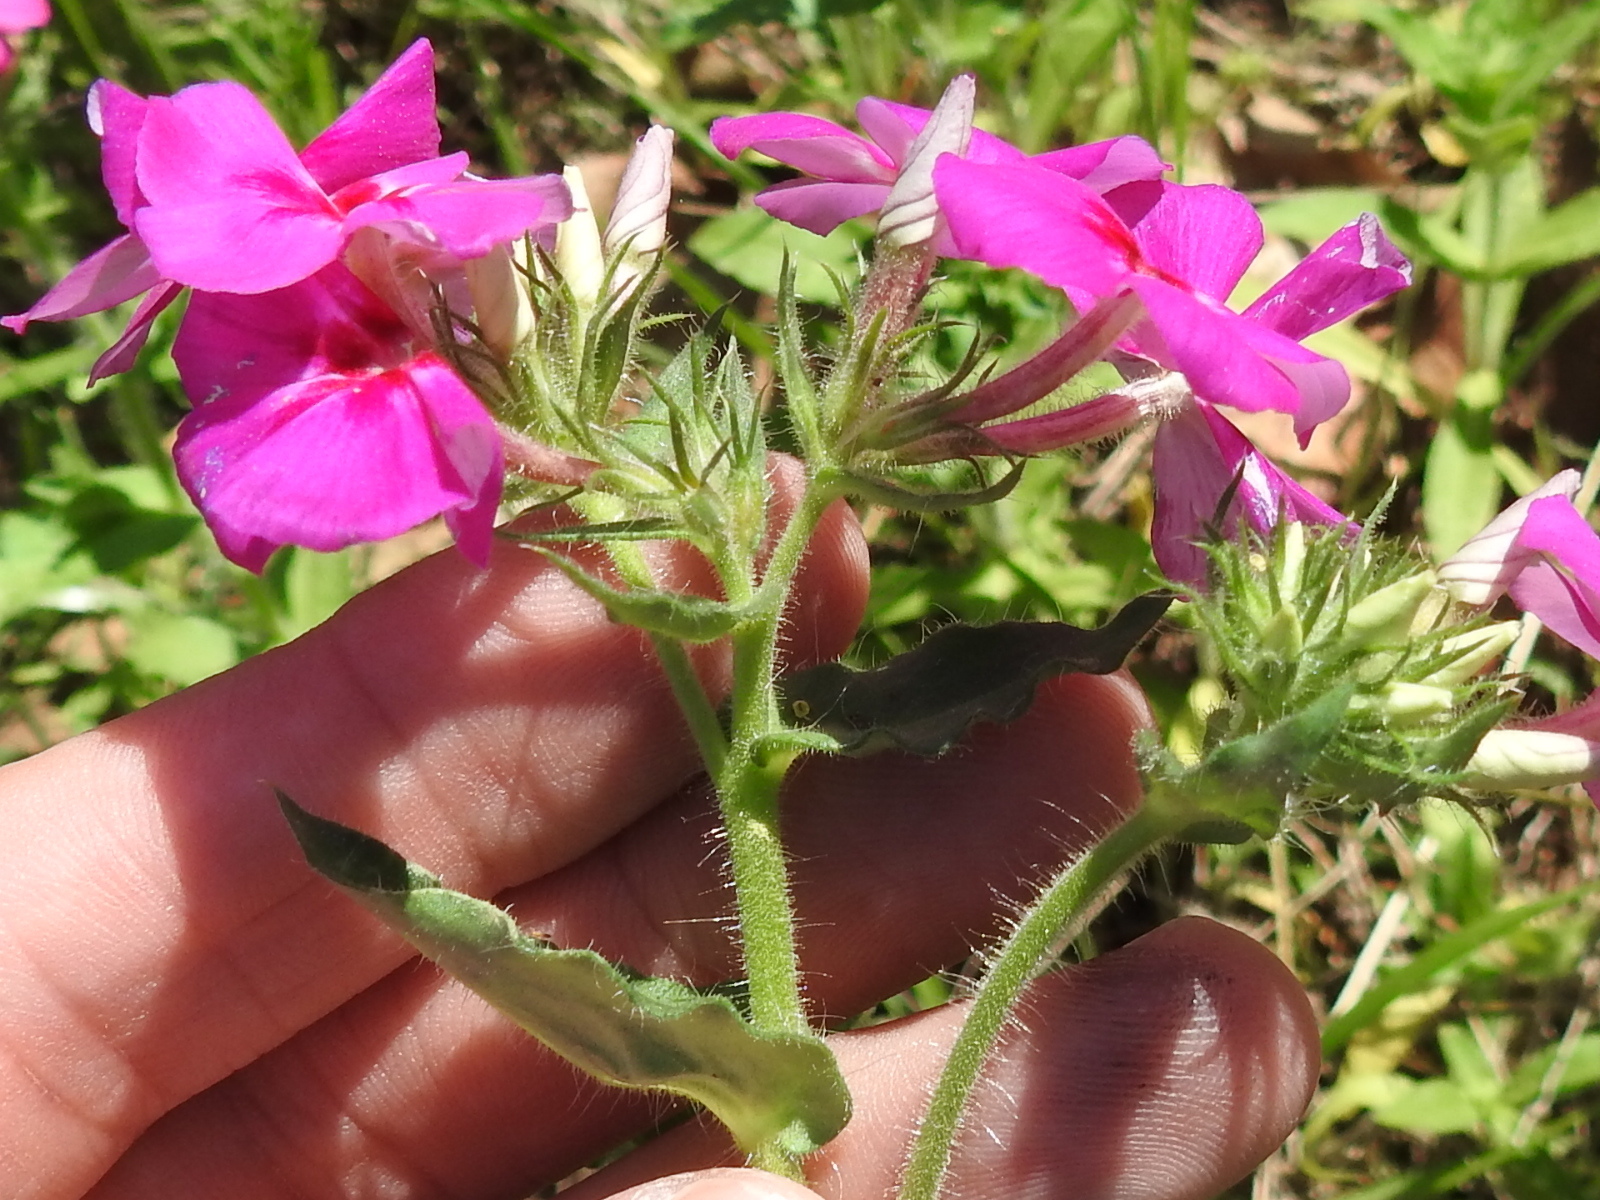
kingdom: Plantae
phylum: Tracheophyta
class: Magnoliopsida
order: Ericales
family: Polemoniaceae
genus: Phlox
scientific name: Phlox drummondii
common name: Drummond's phlox
